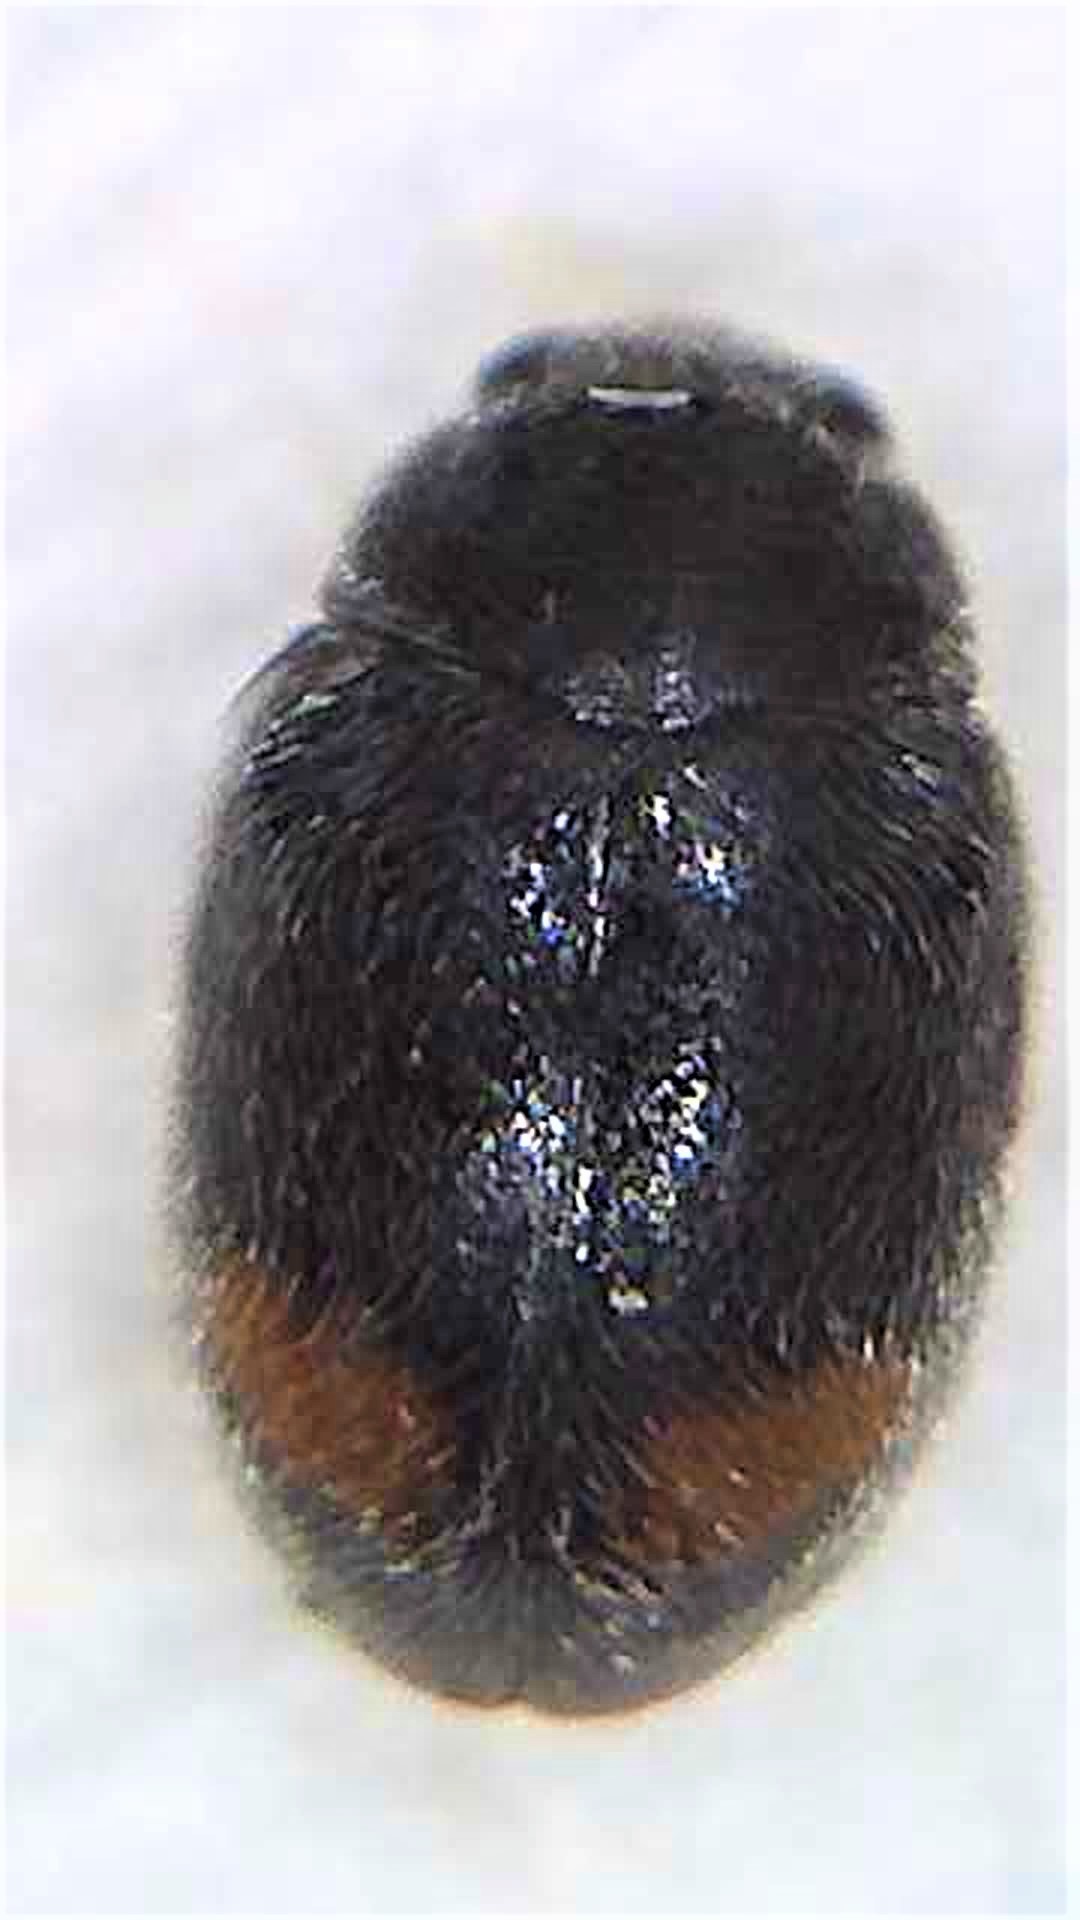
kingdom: Animalia
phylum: Arthropoda
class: Insecta
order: Coleoptera
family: Coccinellidae
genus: Nephus
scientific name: Nephus binaevatus
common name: Ladybird beetle
